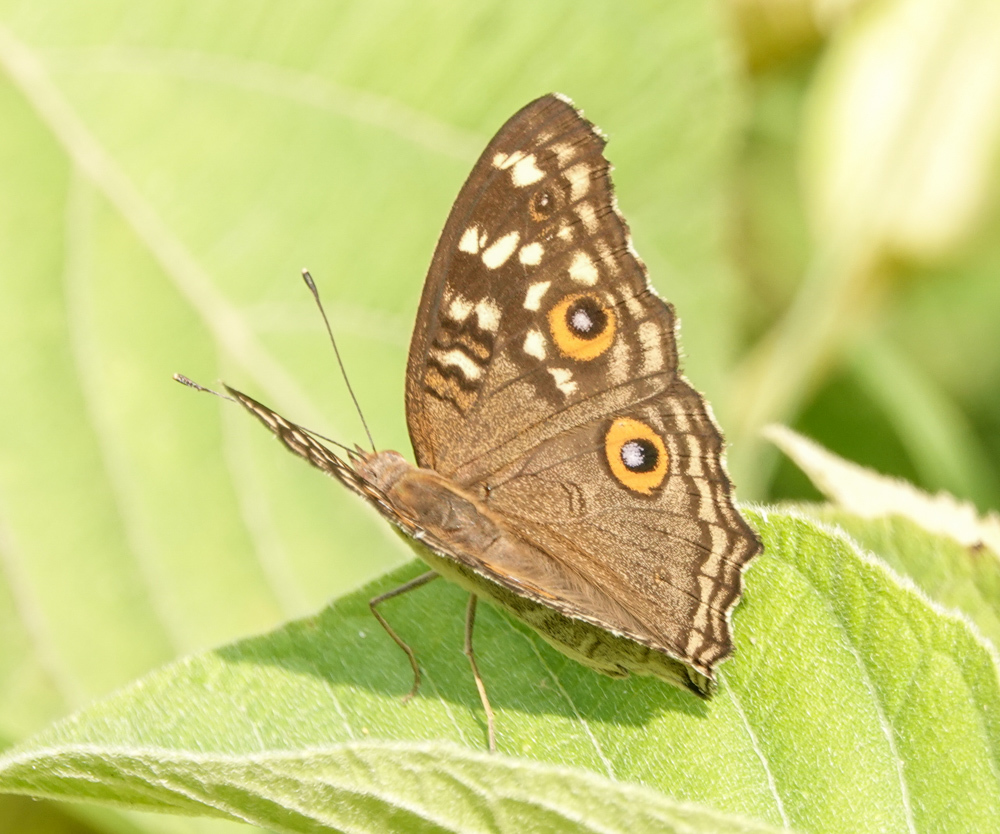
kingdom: Animalia
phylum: Arthropoda
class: Insecta
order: Lepidoptera
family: Nymphalidae
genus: Junonia
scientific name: Junonia lemonias
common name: Lemon pansy
